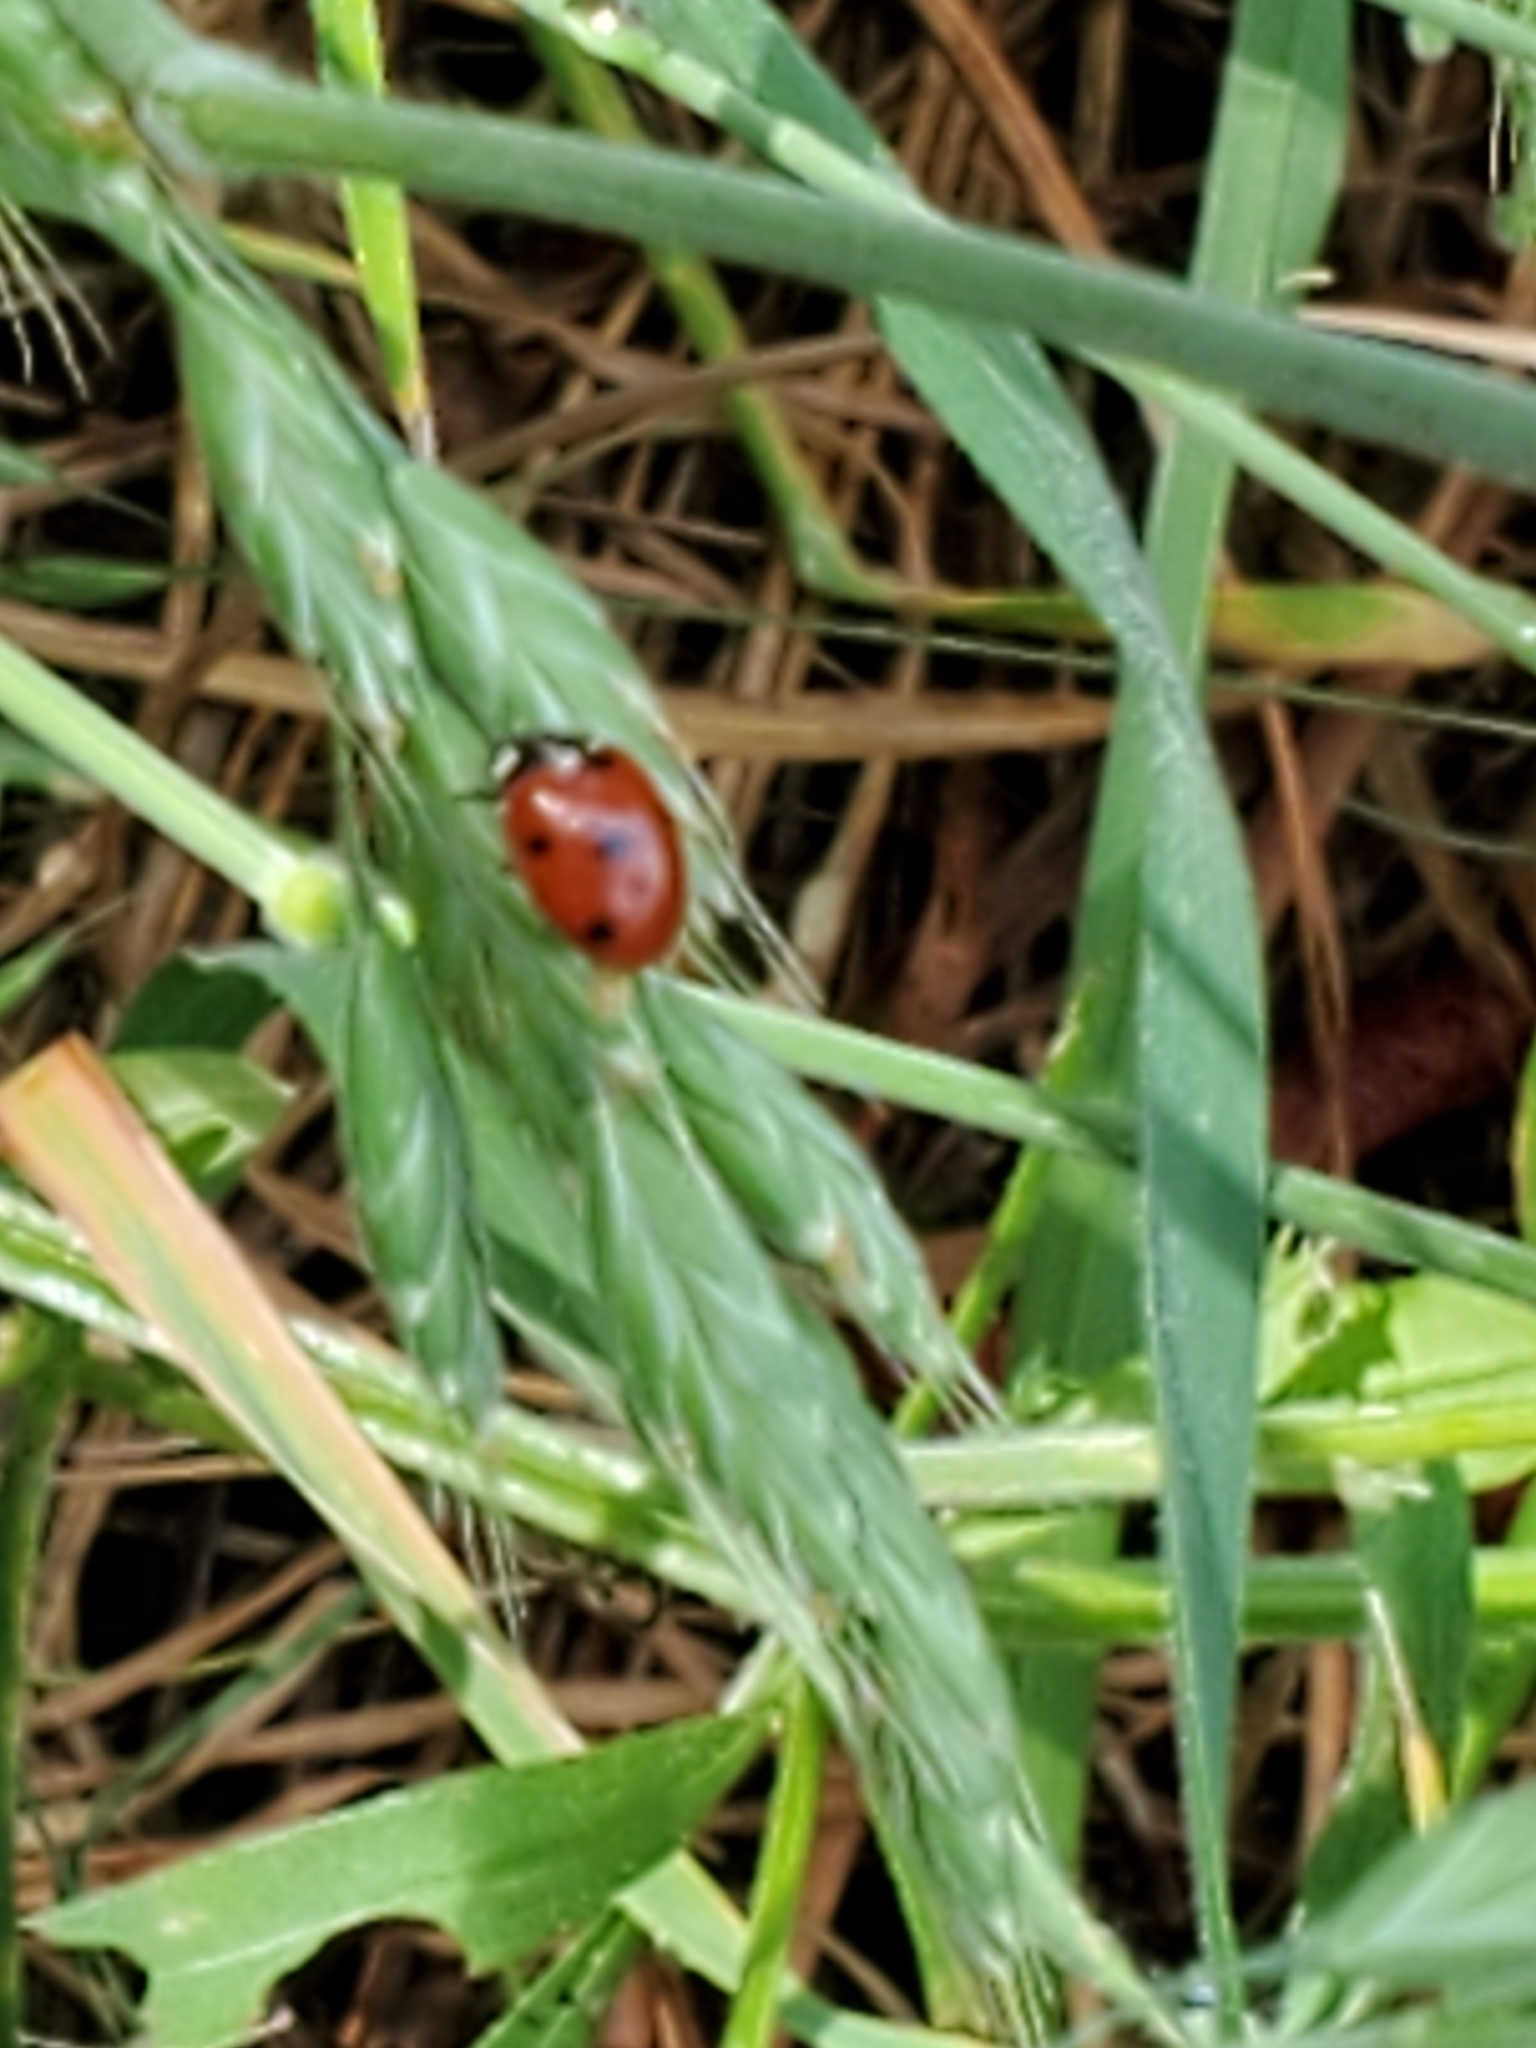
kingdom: Animalia
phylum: Arthropoda
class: Insecta
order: Coleoptera
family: Coccinellidae
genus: Coccinella
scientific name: Coccinella septempunctata
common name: Sevenspotted lady beetle
